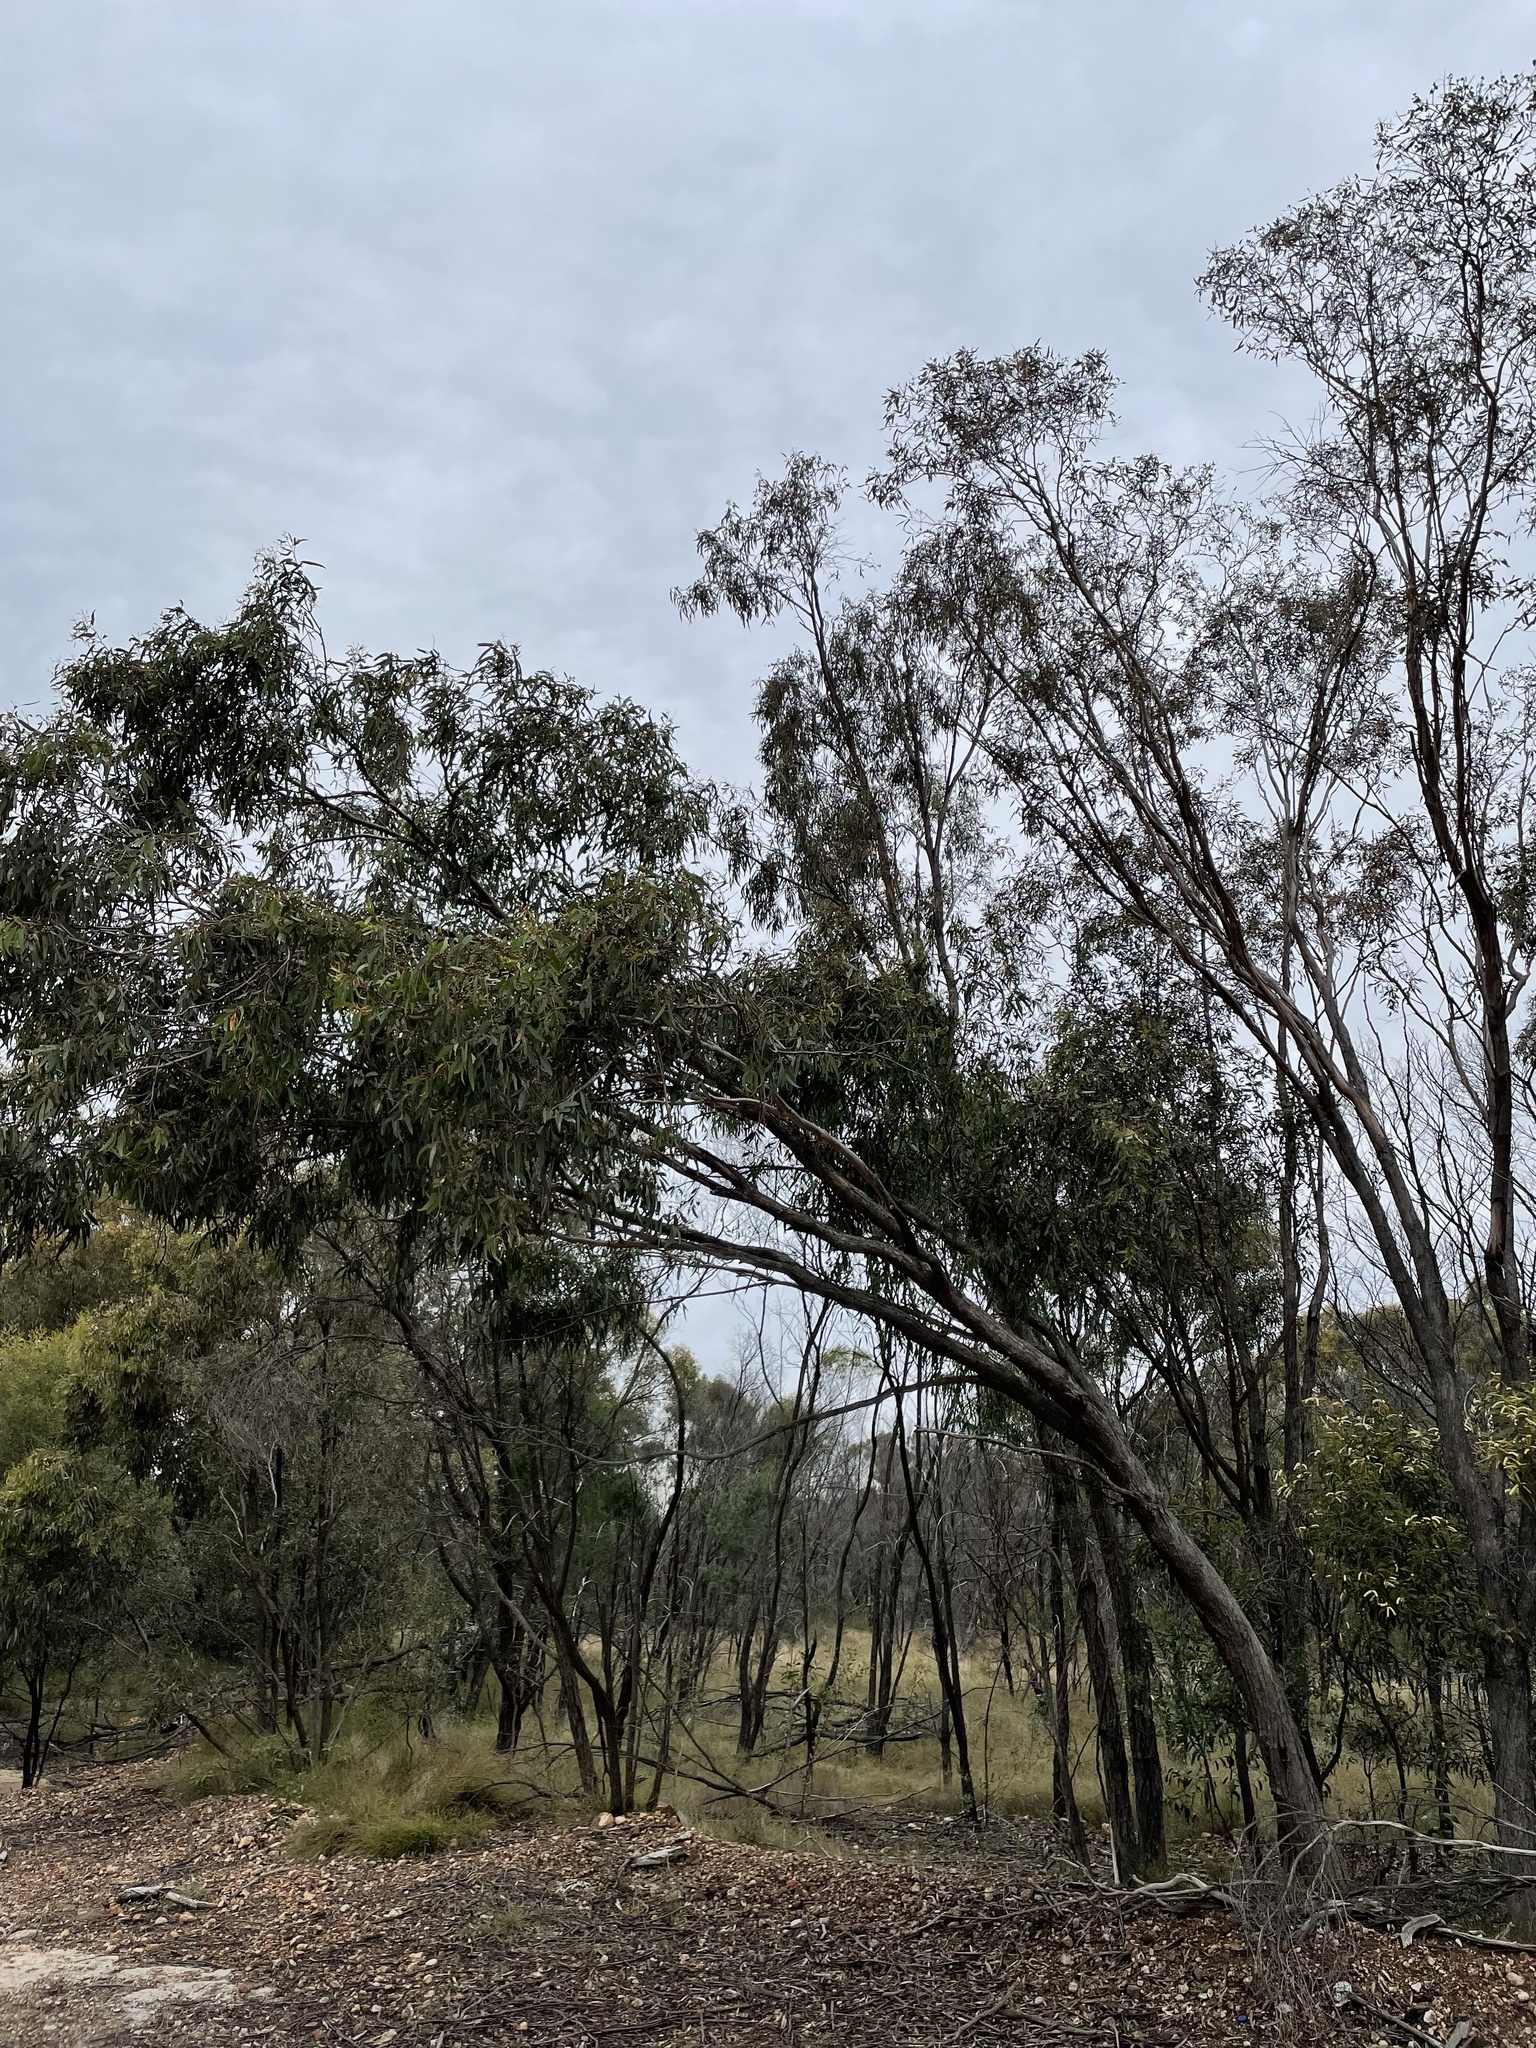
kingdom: Plantae
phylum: Tracheophyta
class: Magnoliopsida
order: Myrtales
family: Myrtaceae
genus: Eucalyptus
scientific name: Eucalyptus exserta
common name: Peppermint-bendo
